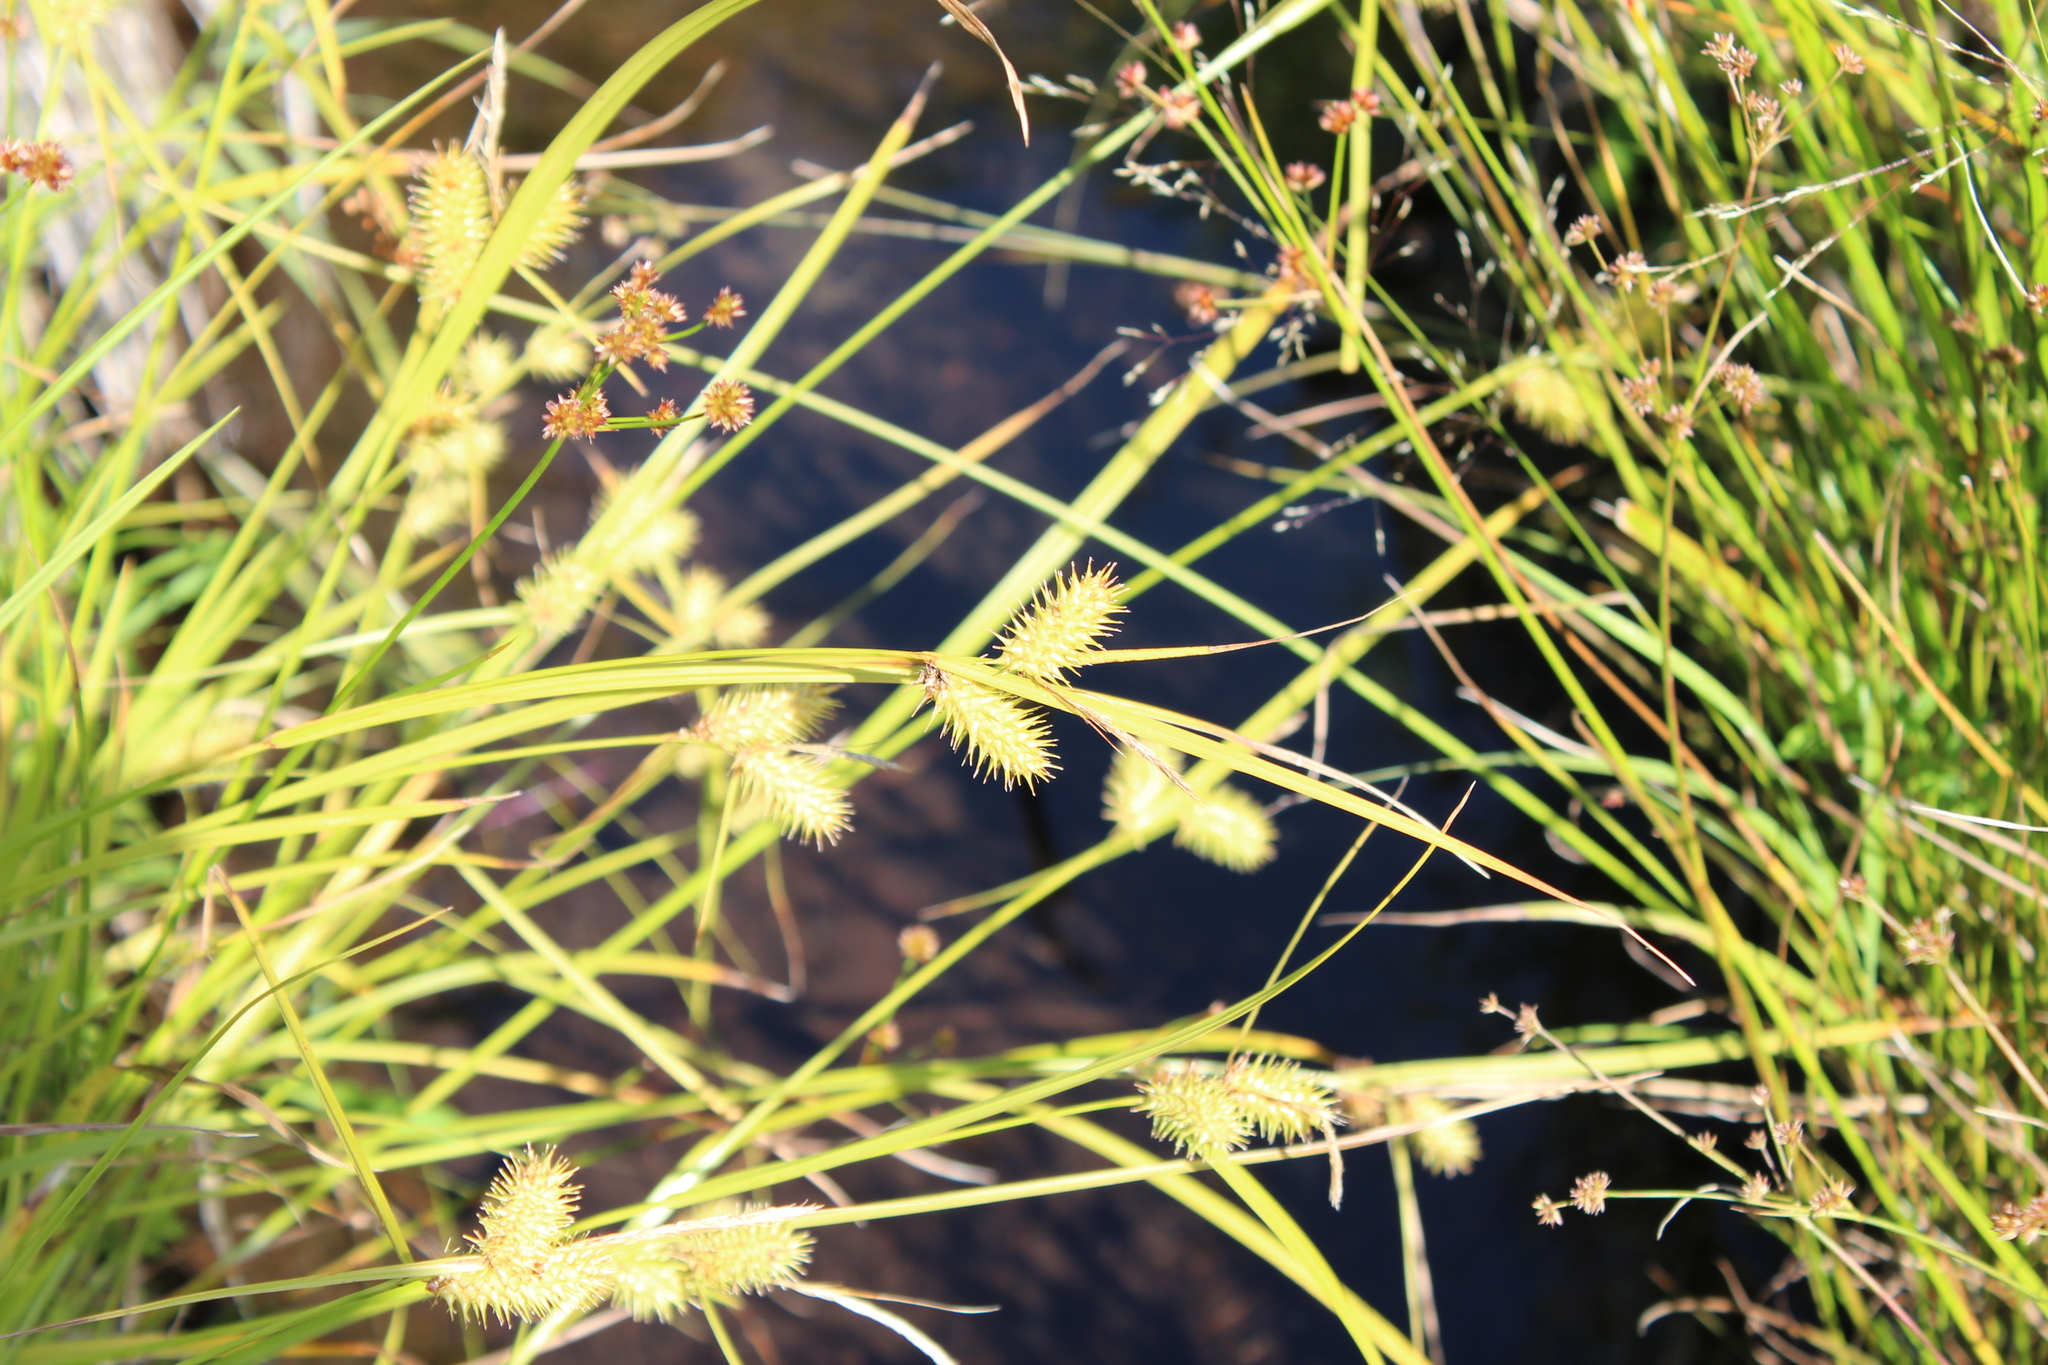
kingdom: Plantae
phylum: Tracheophyta
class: Liliopsida
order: Poales
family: Cyperaceae
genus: Carex
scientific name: Carex lurida
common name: Sallow sedge
